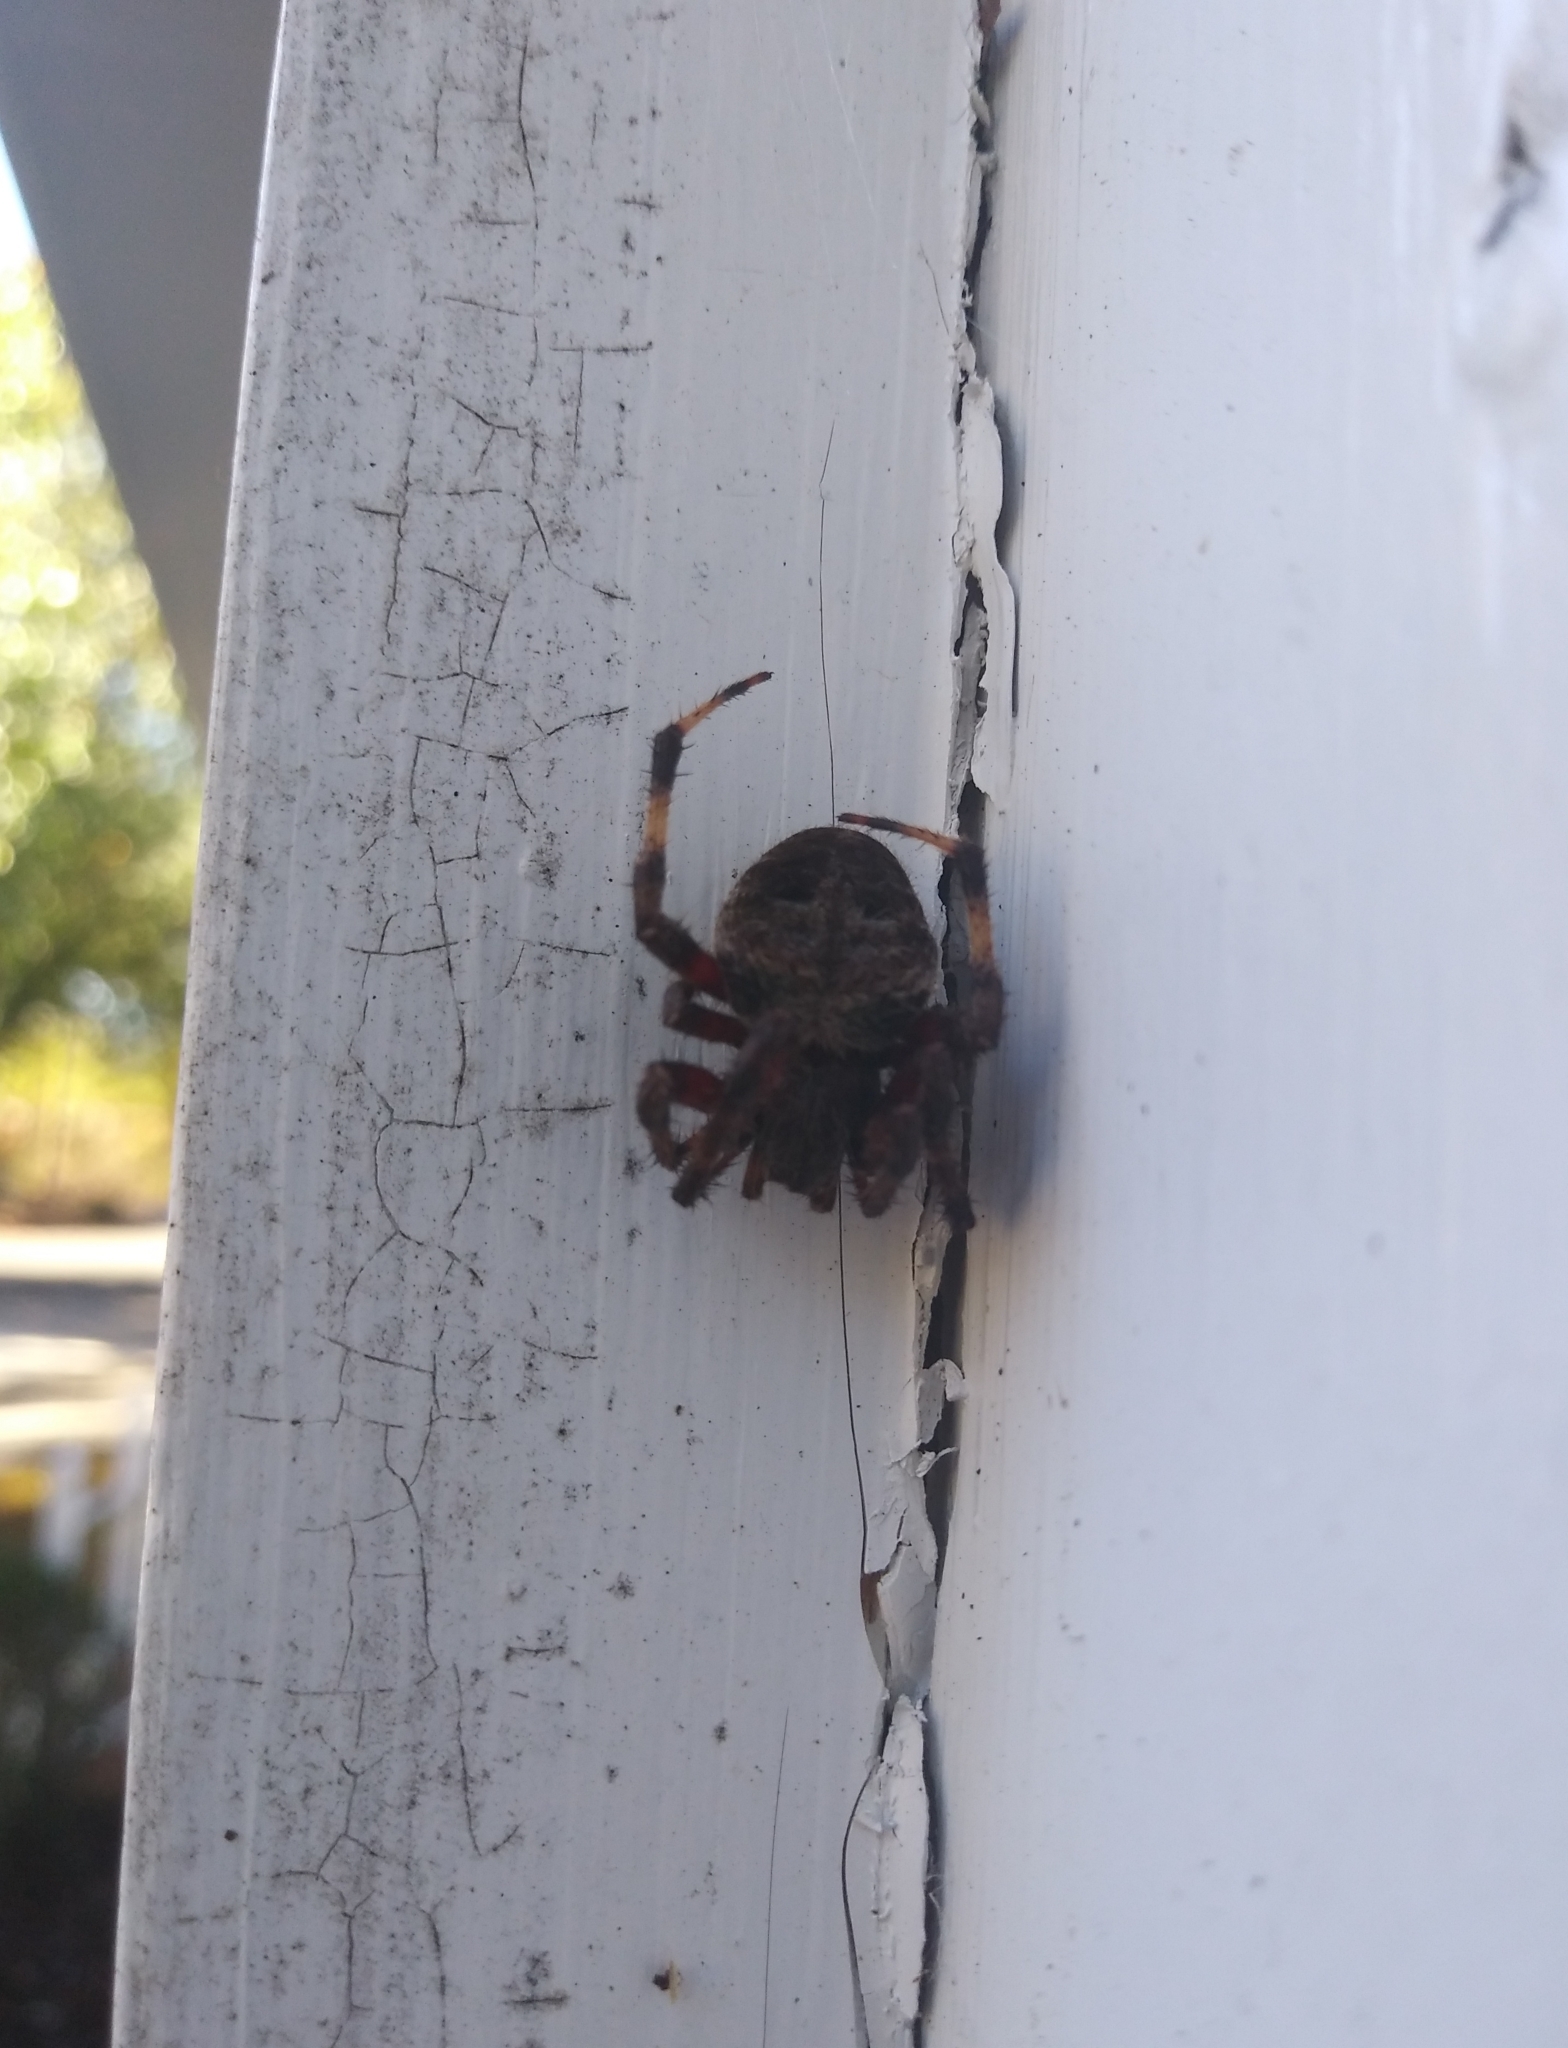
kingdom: Animalia
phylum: Arthropoda
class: Arachnida
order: Araneae
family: Araneidae
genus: Neoscona
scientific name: Neoscona crucifera
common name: Spotted orbweaver
